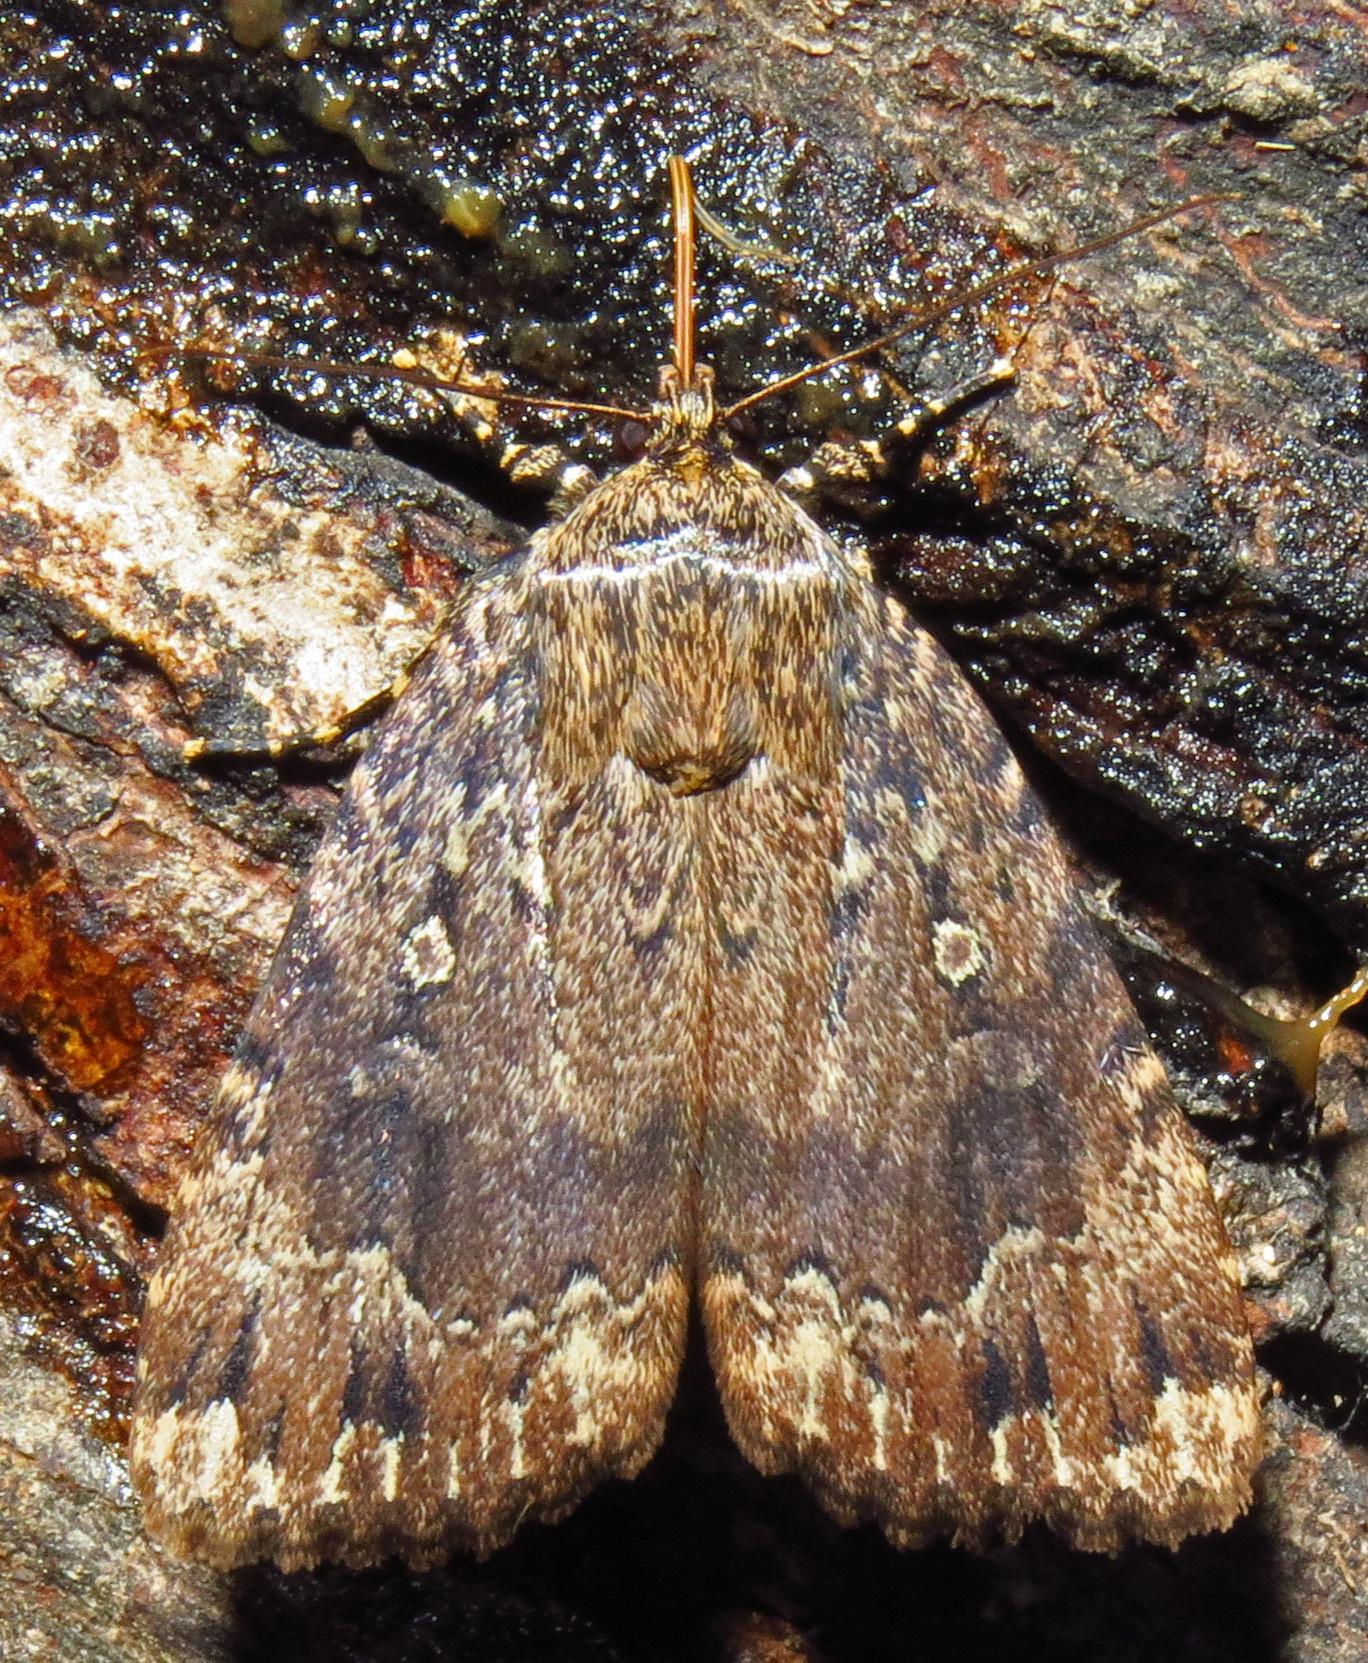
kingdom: Animalia
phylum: Arthropoda
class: Insecta
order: Lepidoptera
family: Noctuidae
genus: Amphipyra
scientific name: Amphipyra pyramidoides
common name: American copper underwing
